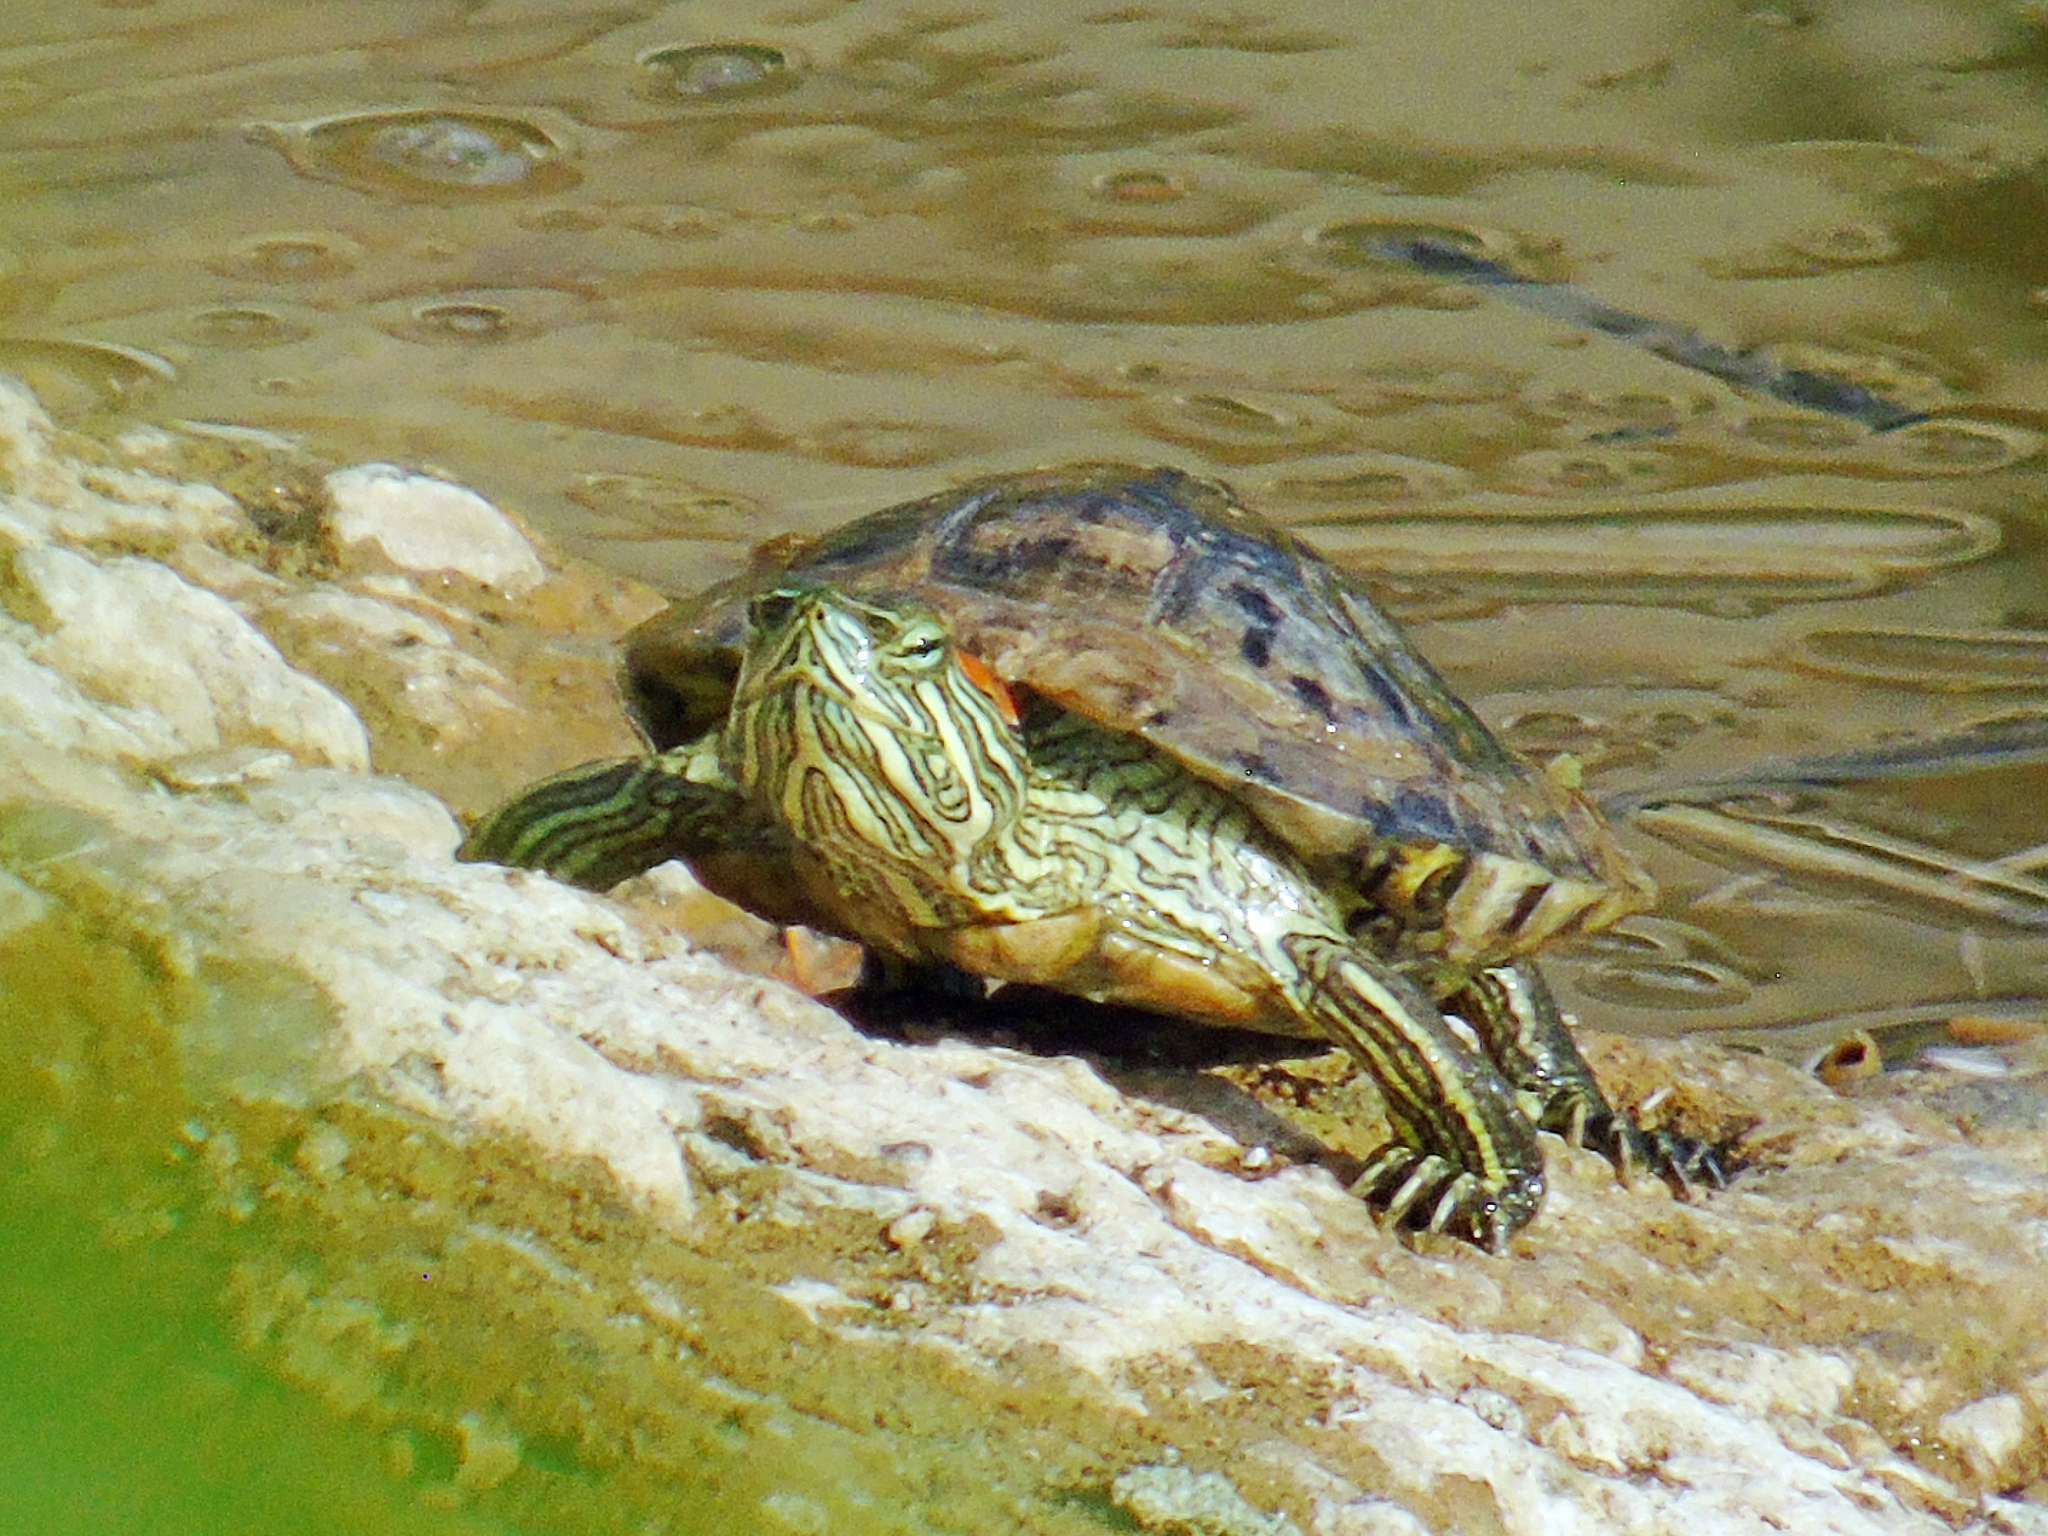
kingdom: Animalia
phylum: Chordata
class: Testudines
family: Emydidae
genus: Trachemys
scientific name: Trachemys scripta
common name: Slider
